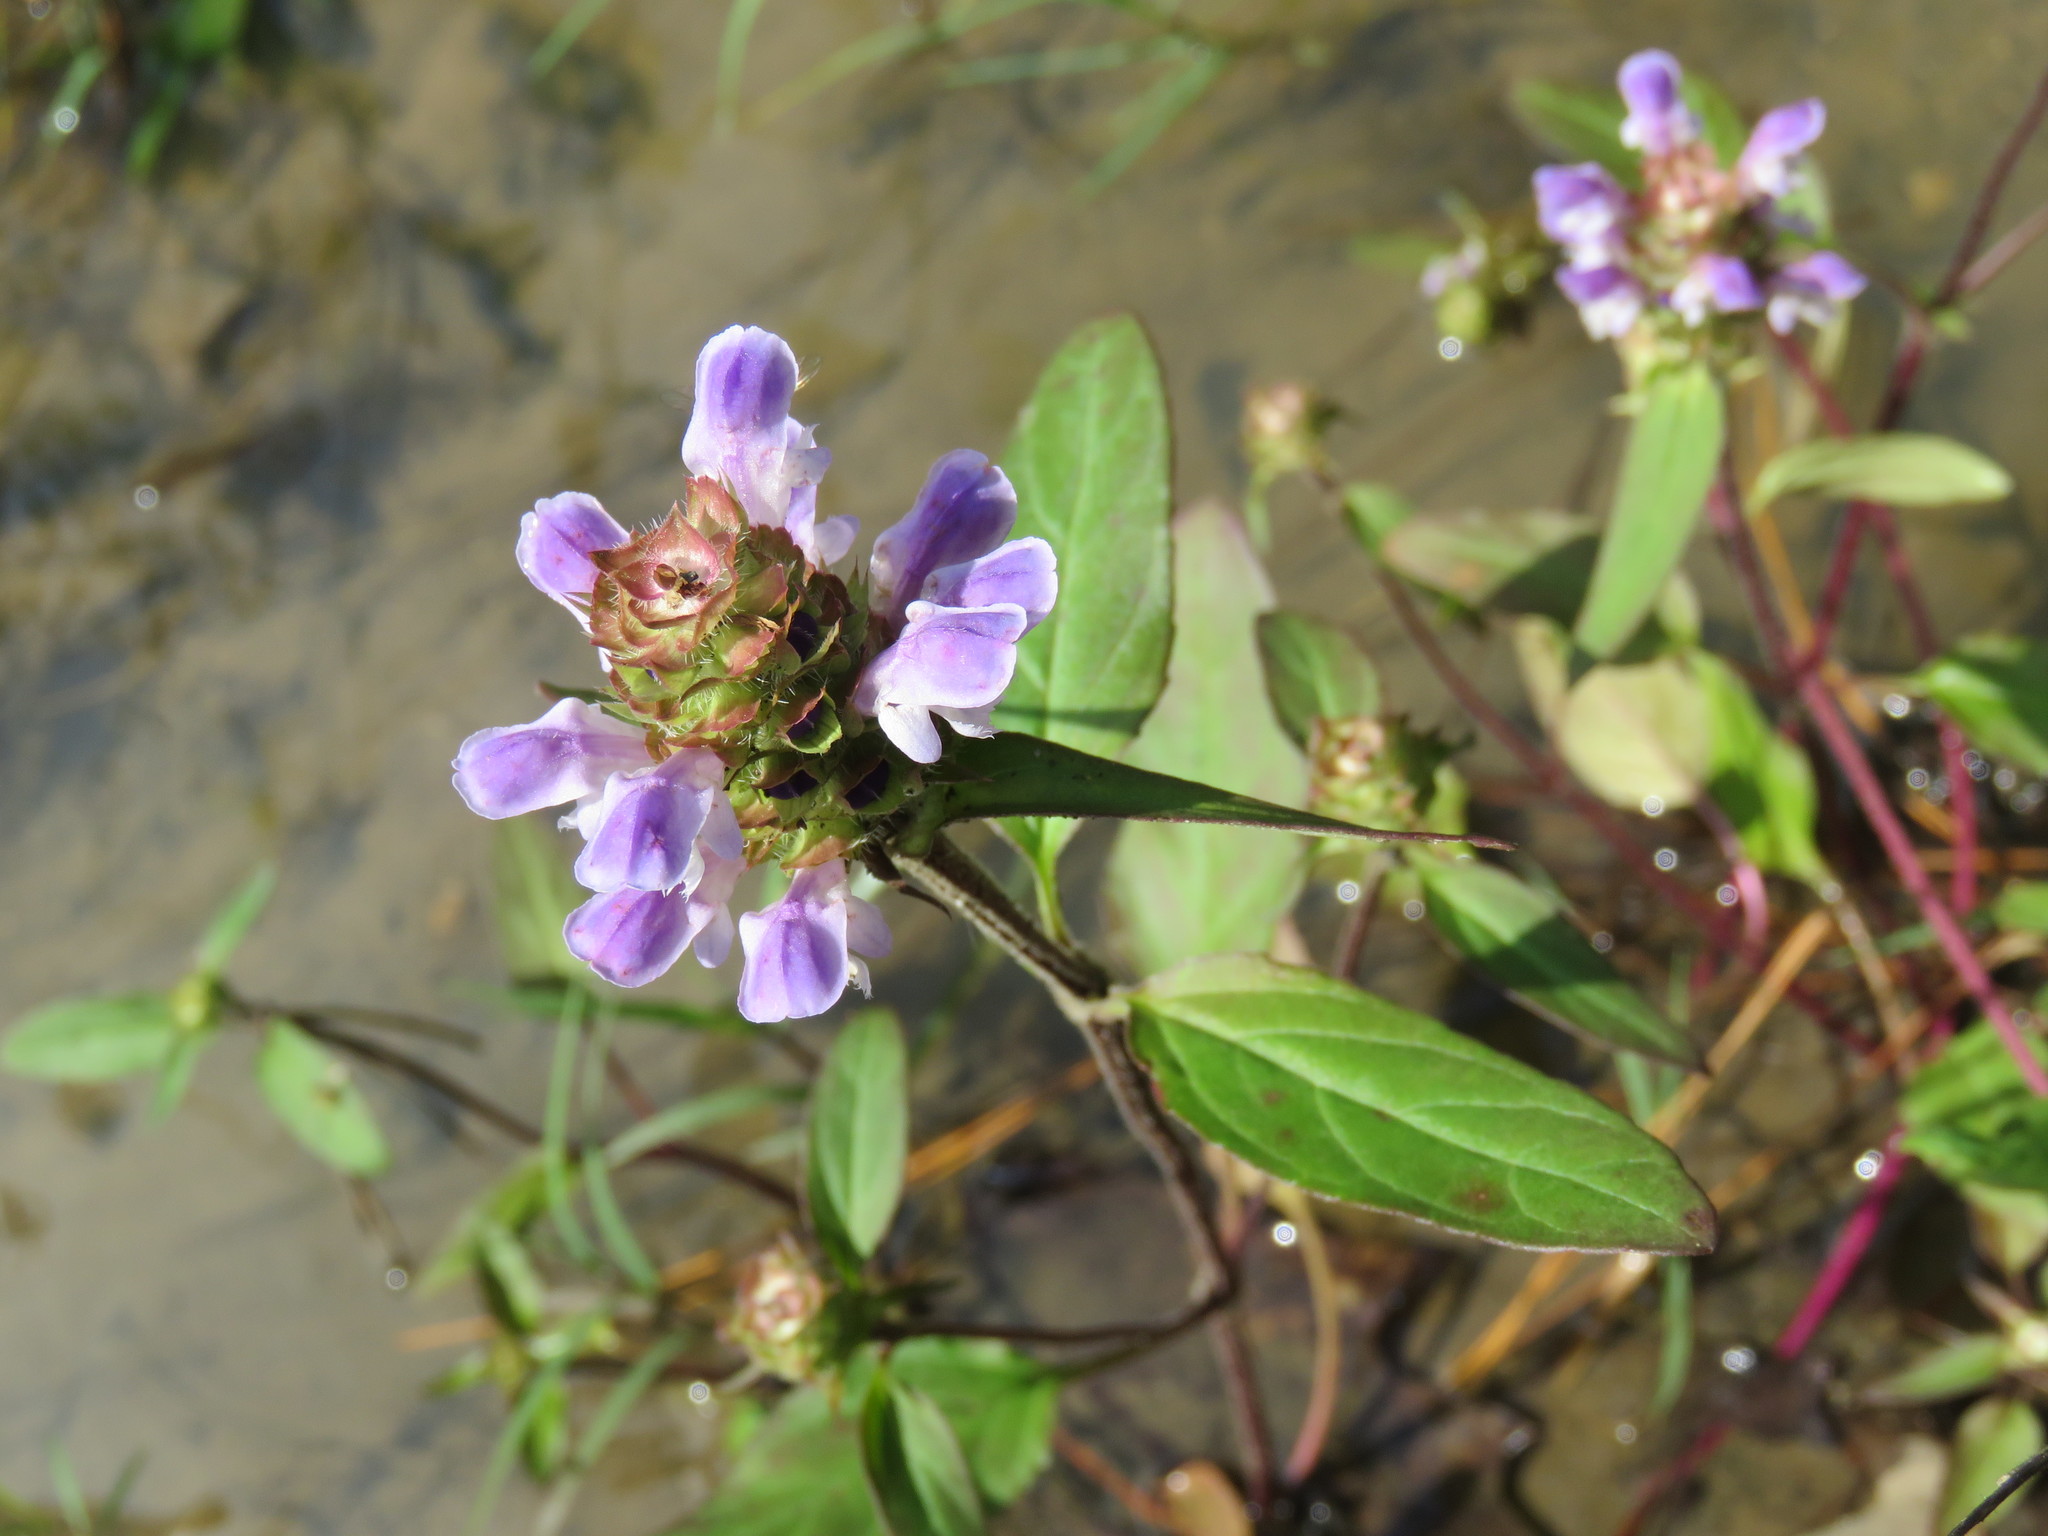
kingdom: Plantae
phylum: Tracheophyta
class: Magnoliopsida
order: Lamiales
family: Lamiaceae
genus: Prunella
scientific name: Prunella vulgaris
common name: Heal-all
